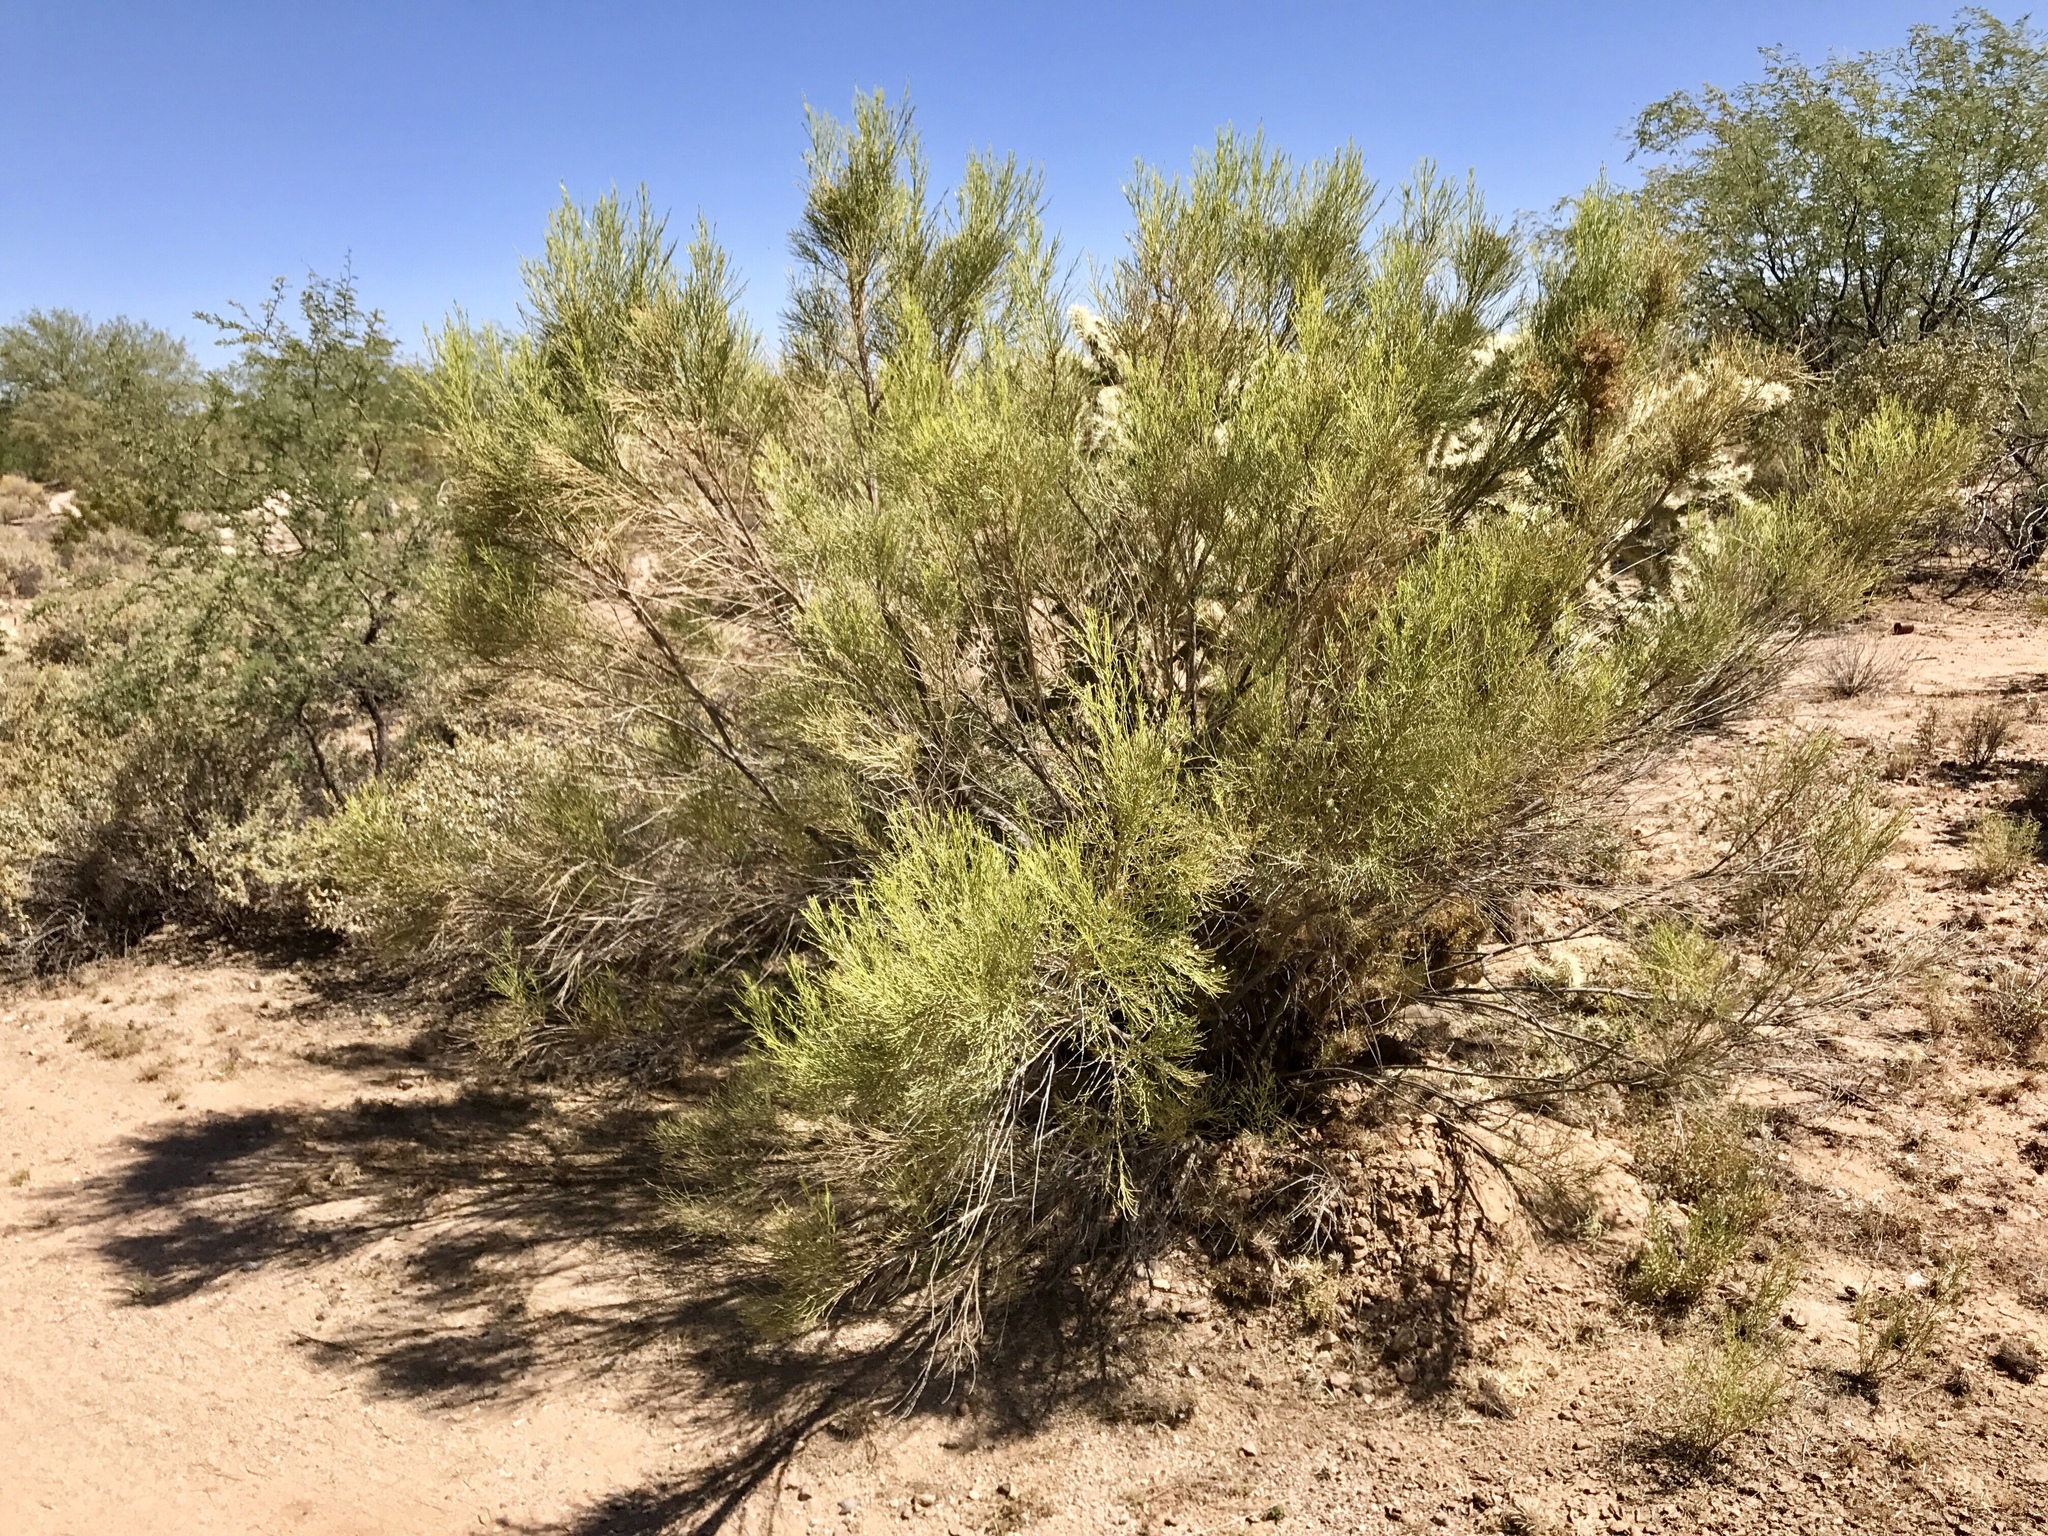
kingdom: Plantae
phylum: Tracheophyta
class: Magnoliopsida
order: Asterales
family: Asteraceae
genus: Baccharis
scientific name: Baccharis sarothroides
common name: Desert-broom
